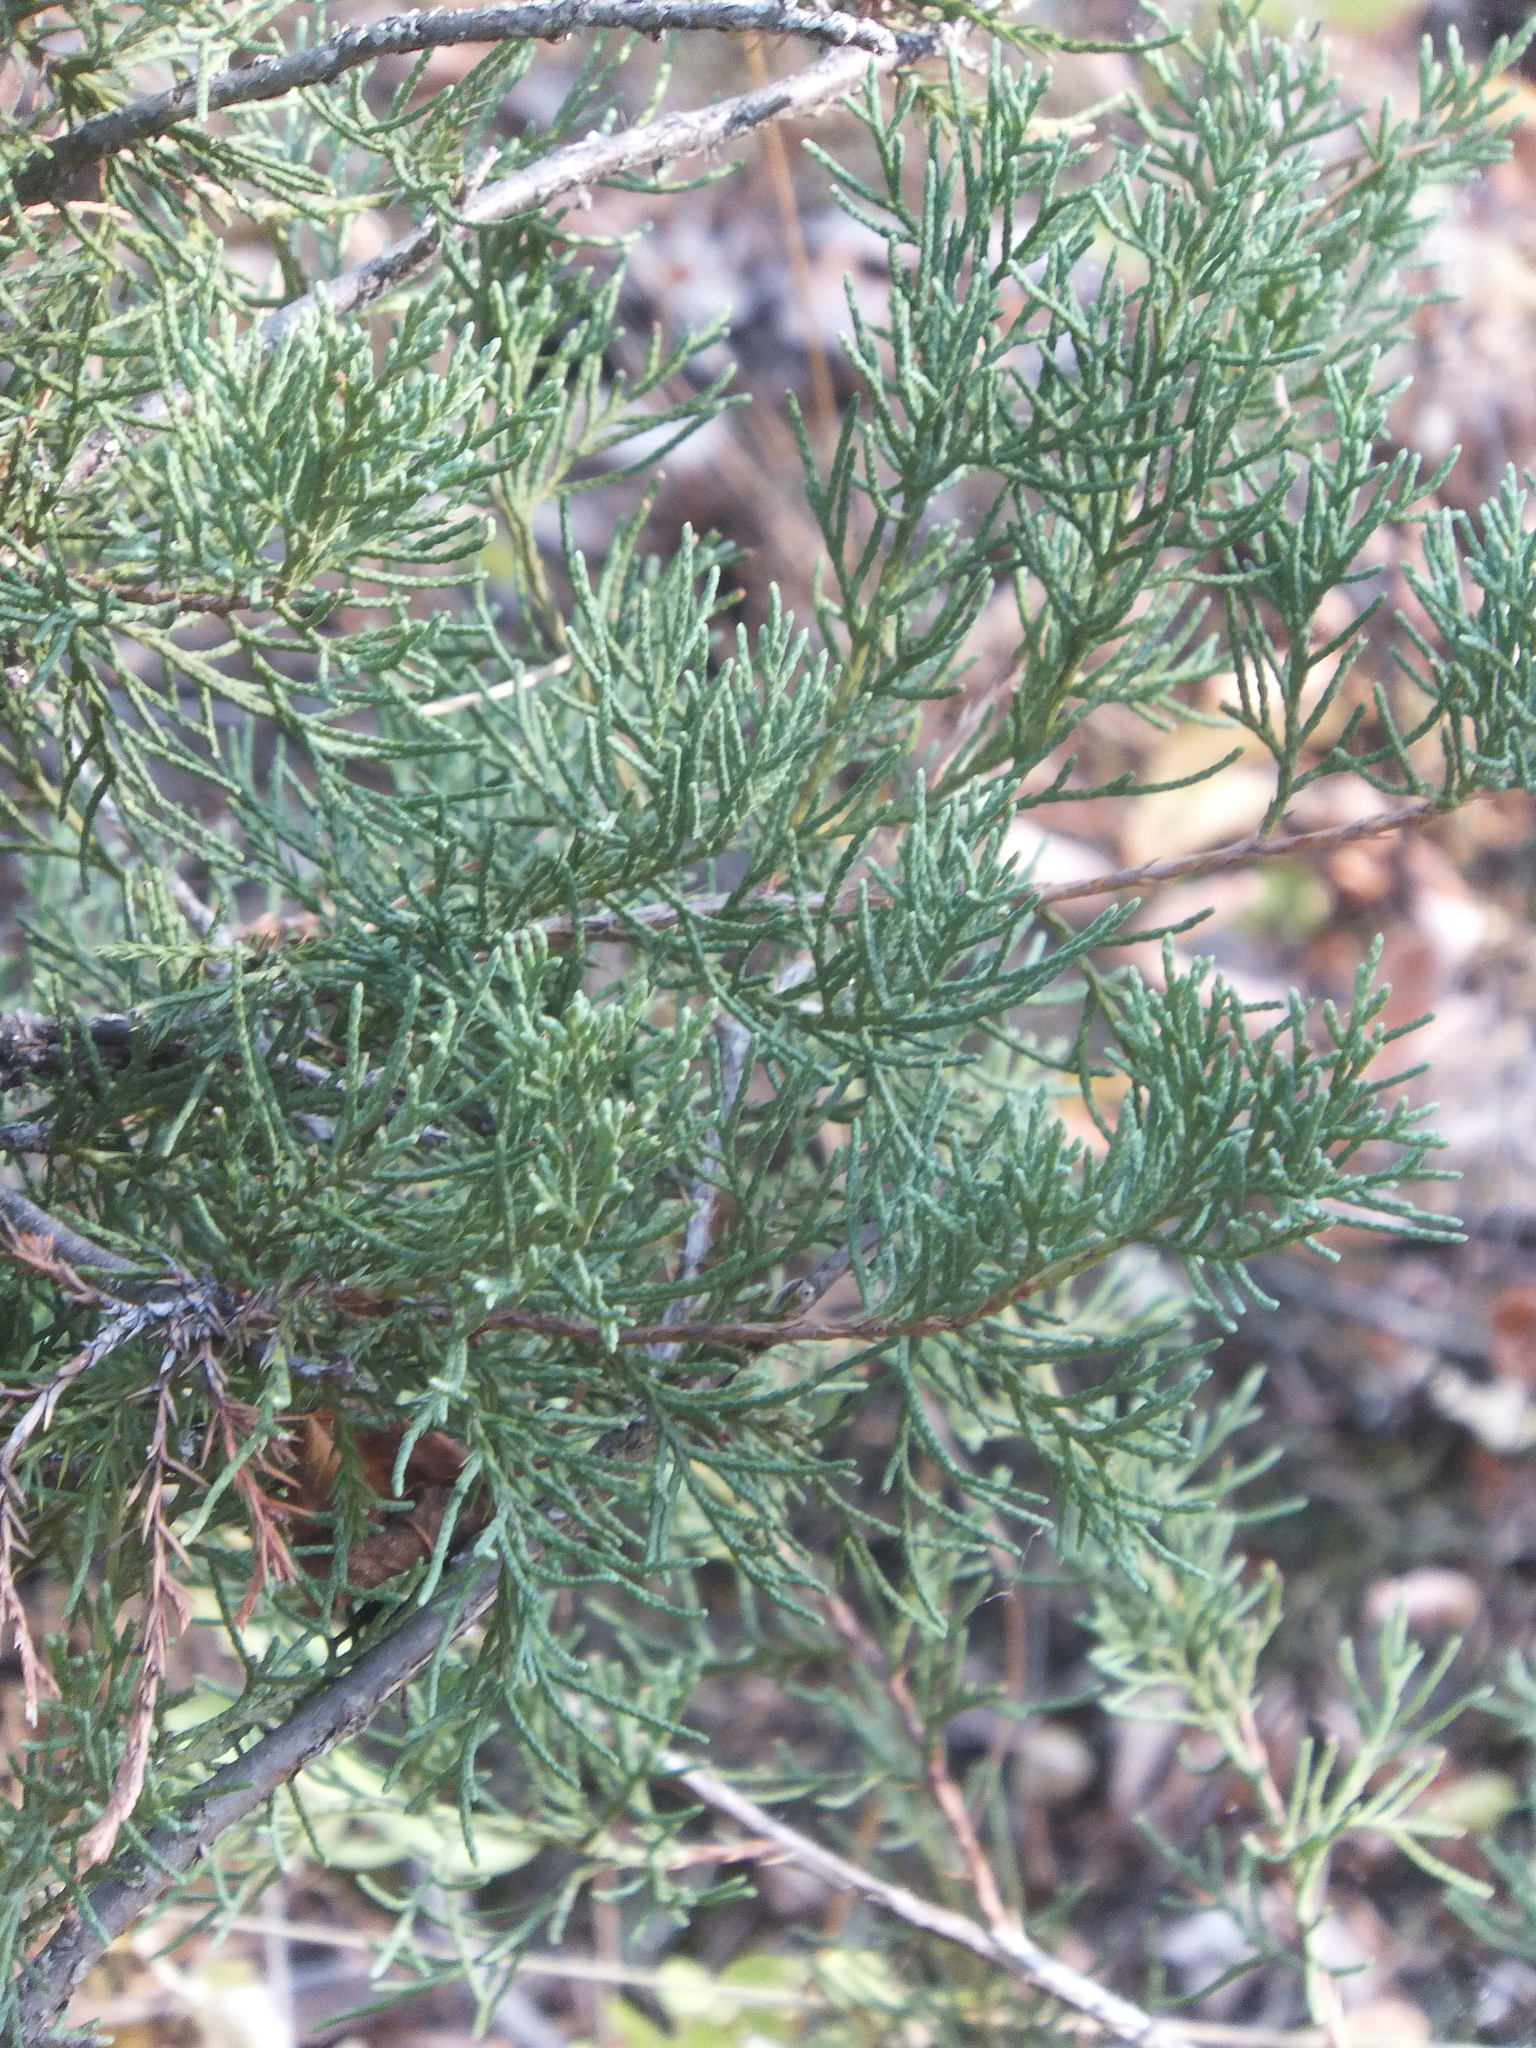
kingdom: Plantae
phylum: Tracheophyta
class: Pinopsida
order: Pinales
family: Cupressaceae
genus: Juniperus
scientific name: Juniperus scopulorum
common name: Rocky mountain juniper
